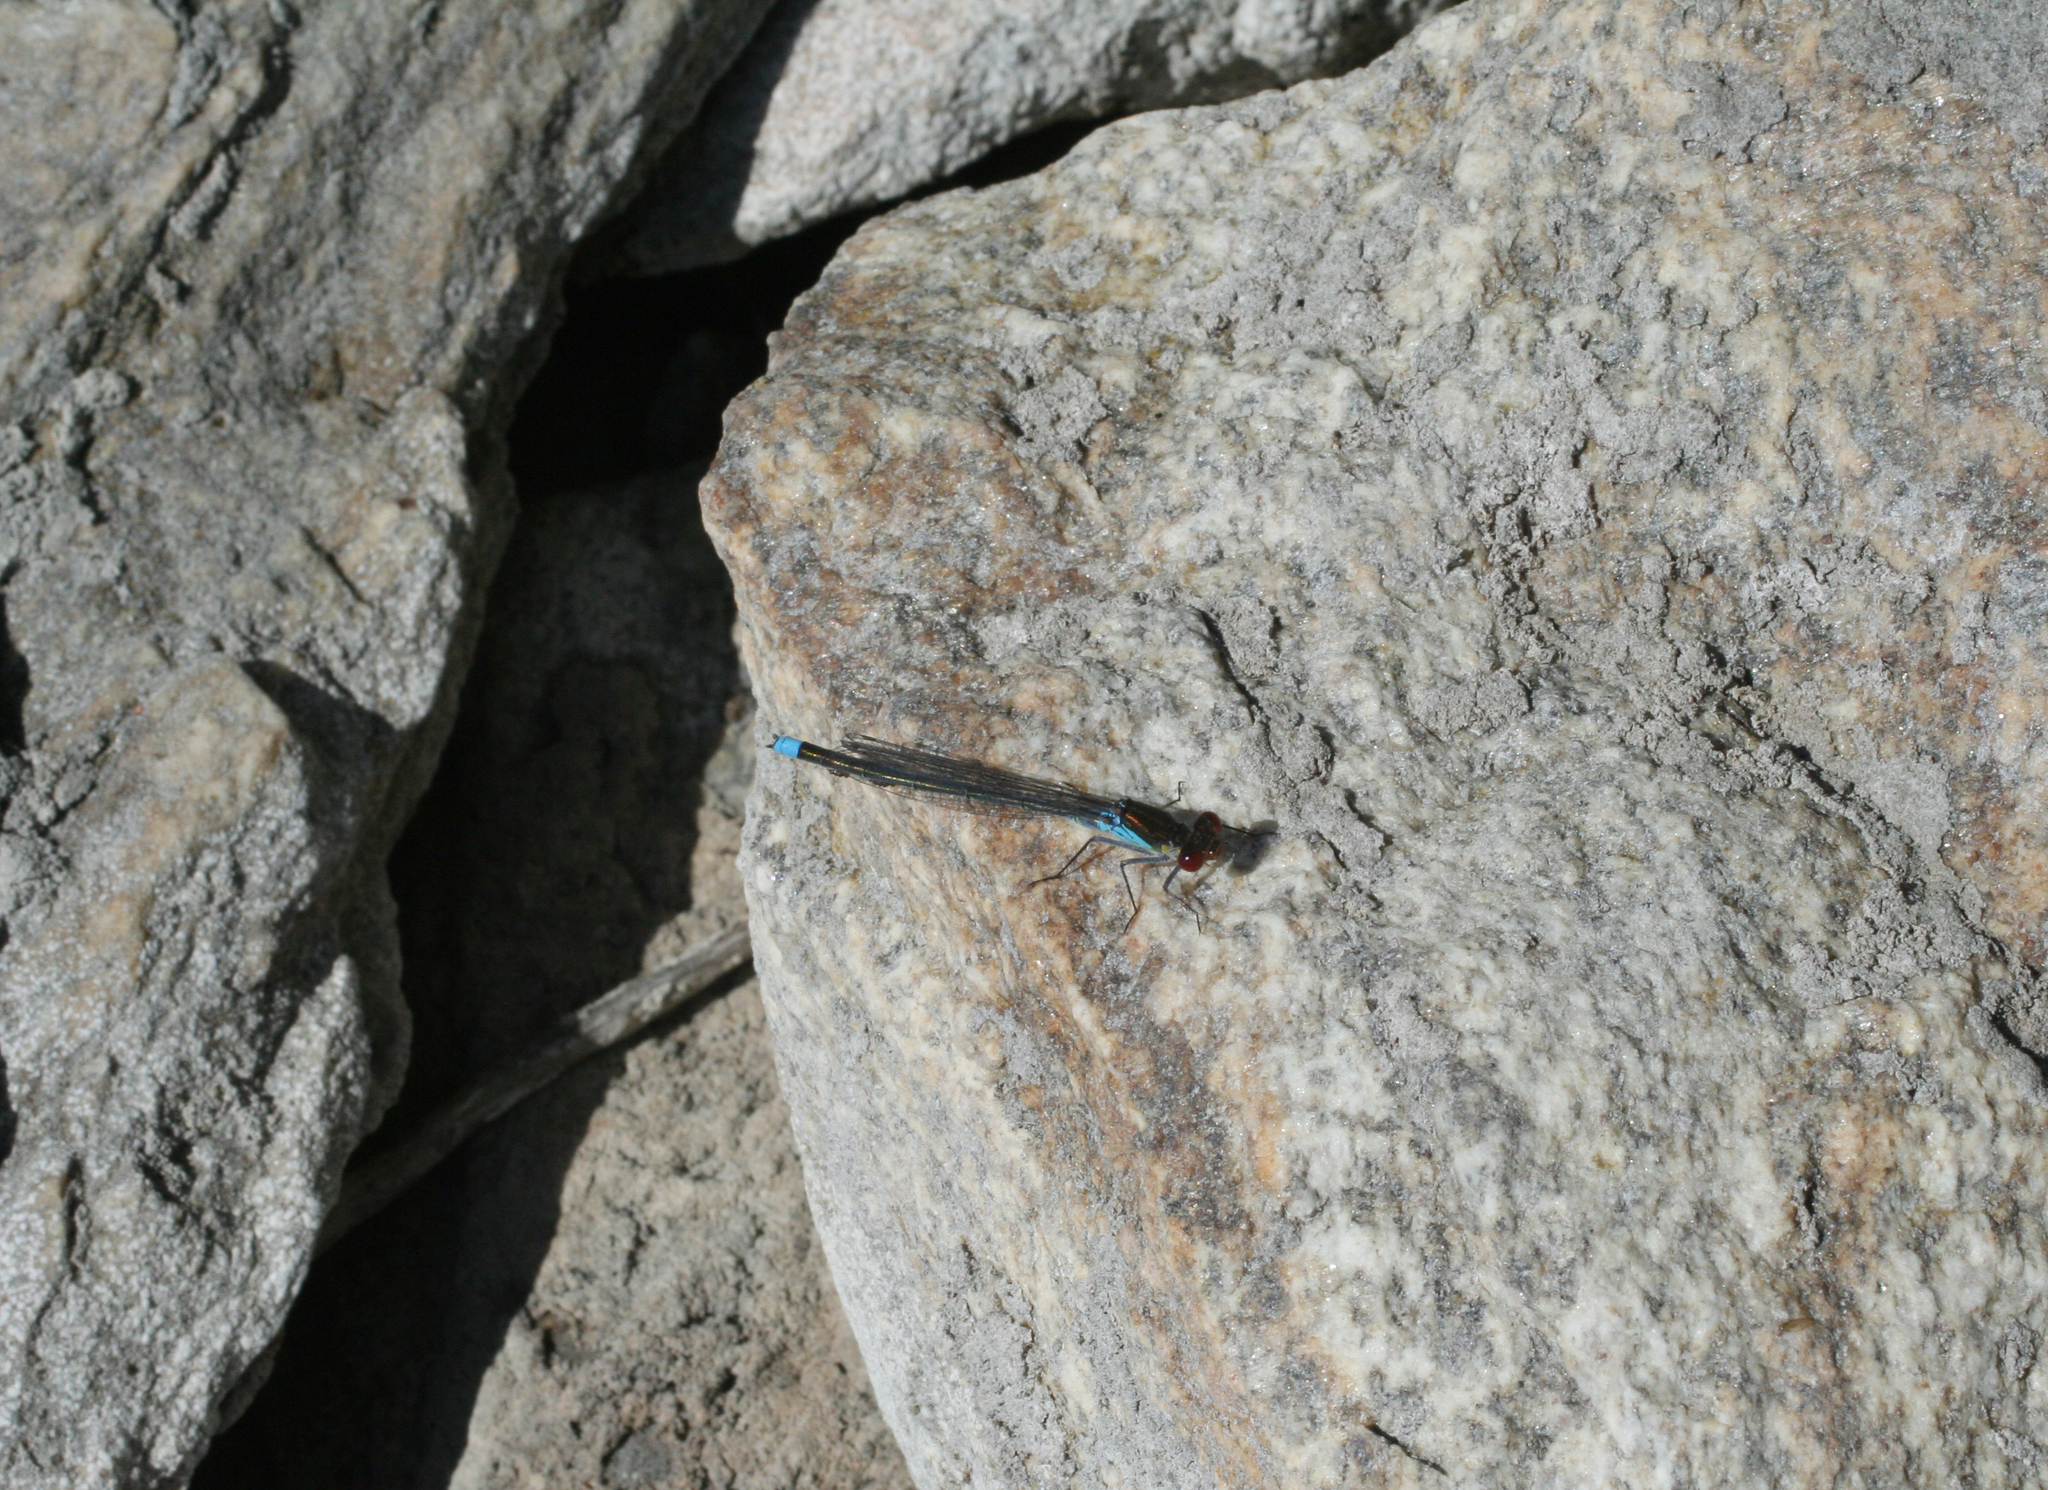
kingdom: Animalia
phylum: Arthropoda
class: Insecta
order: Odonata
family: Coenagrionidae
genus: Erythromma
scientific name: Erythromma najas
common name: Red-eyed damselfly
